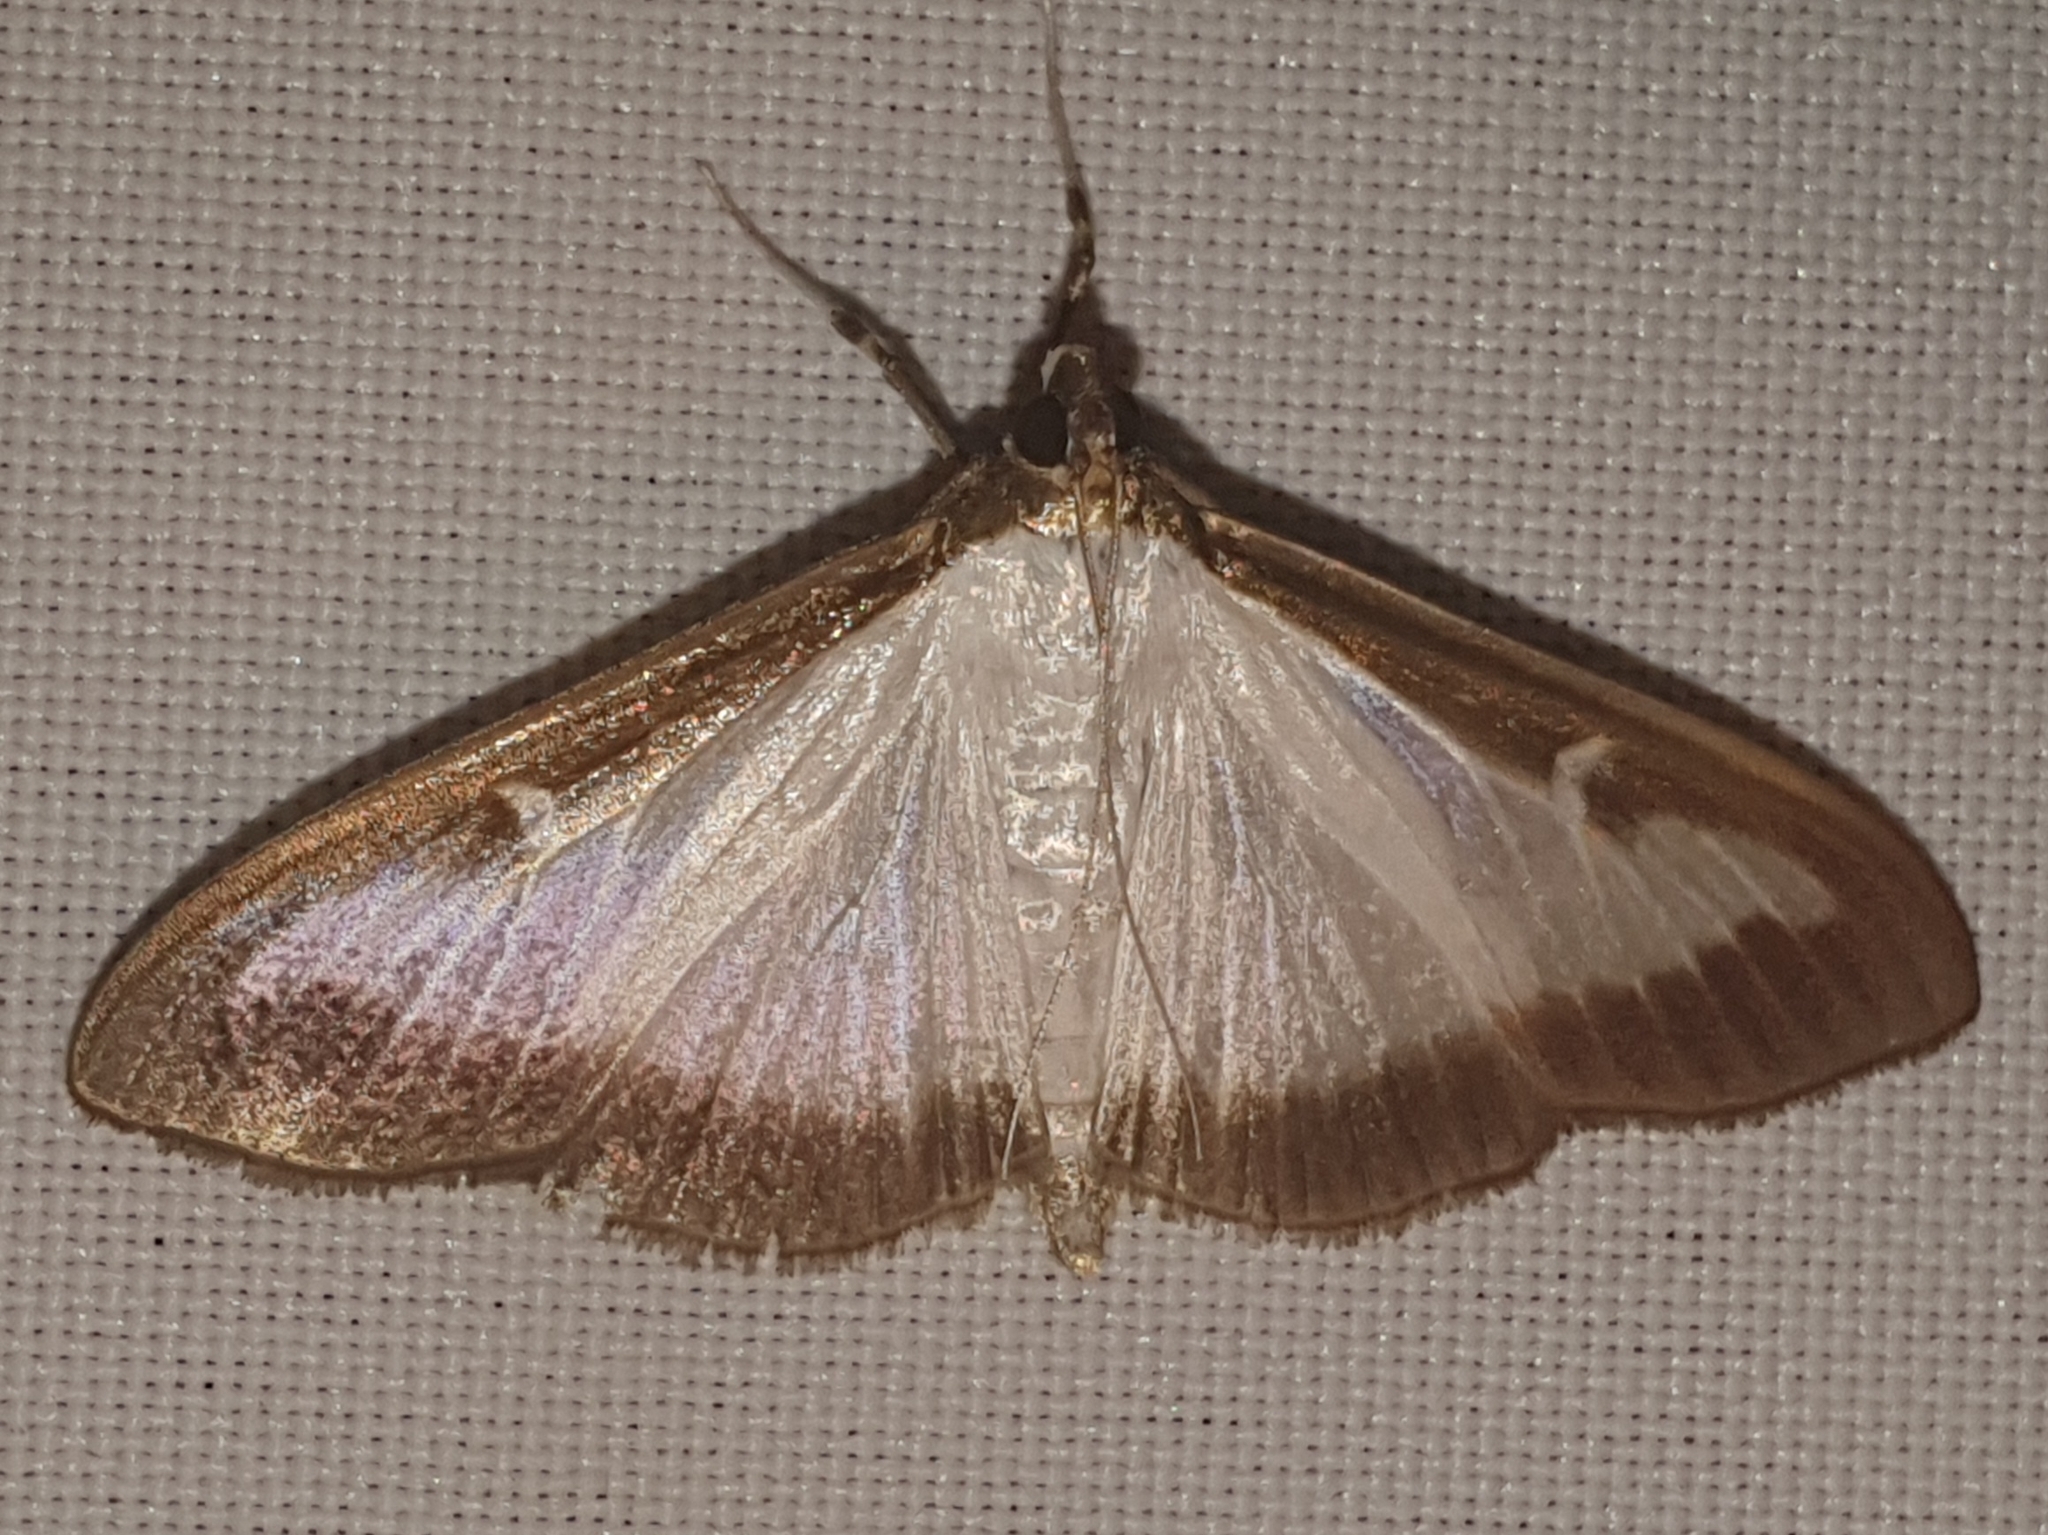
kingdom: Animalia
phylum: Arthropoda
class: Insecta
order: Lepidoptera
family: Crambidae
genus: Cydalima
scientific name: Cydalima perspectalis
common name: Box tree moth
